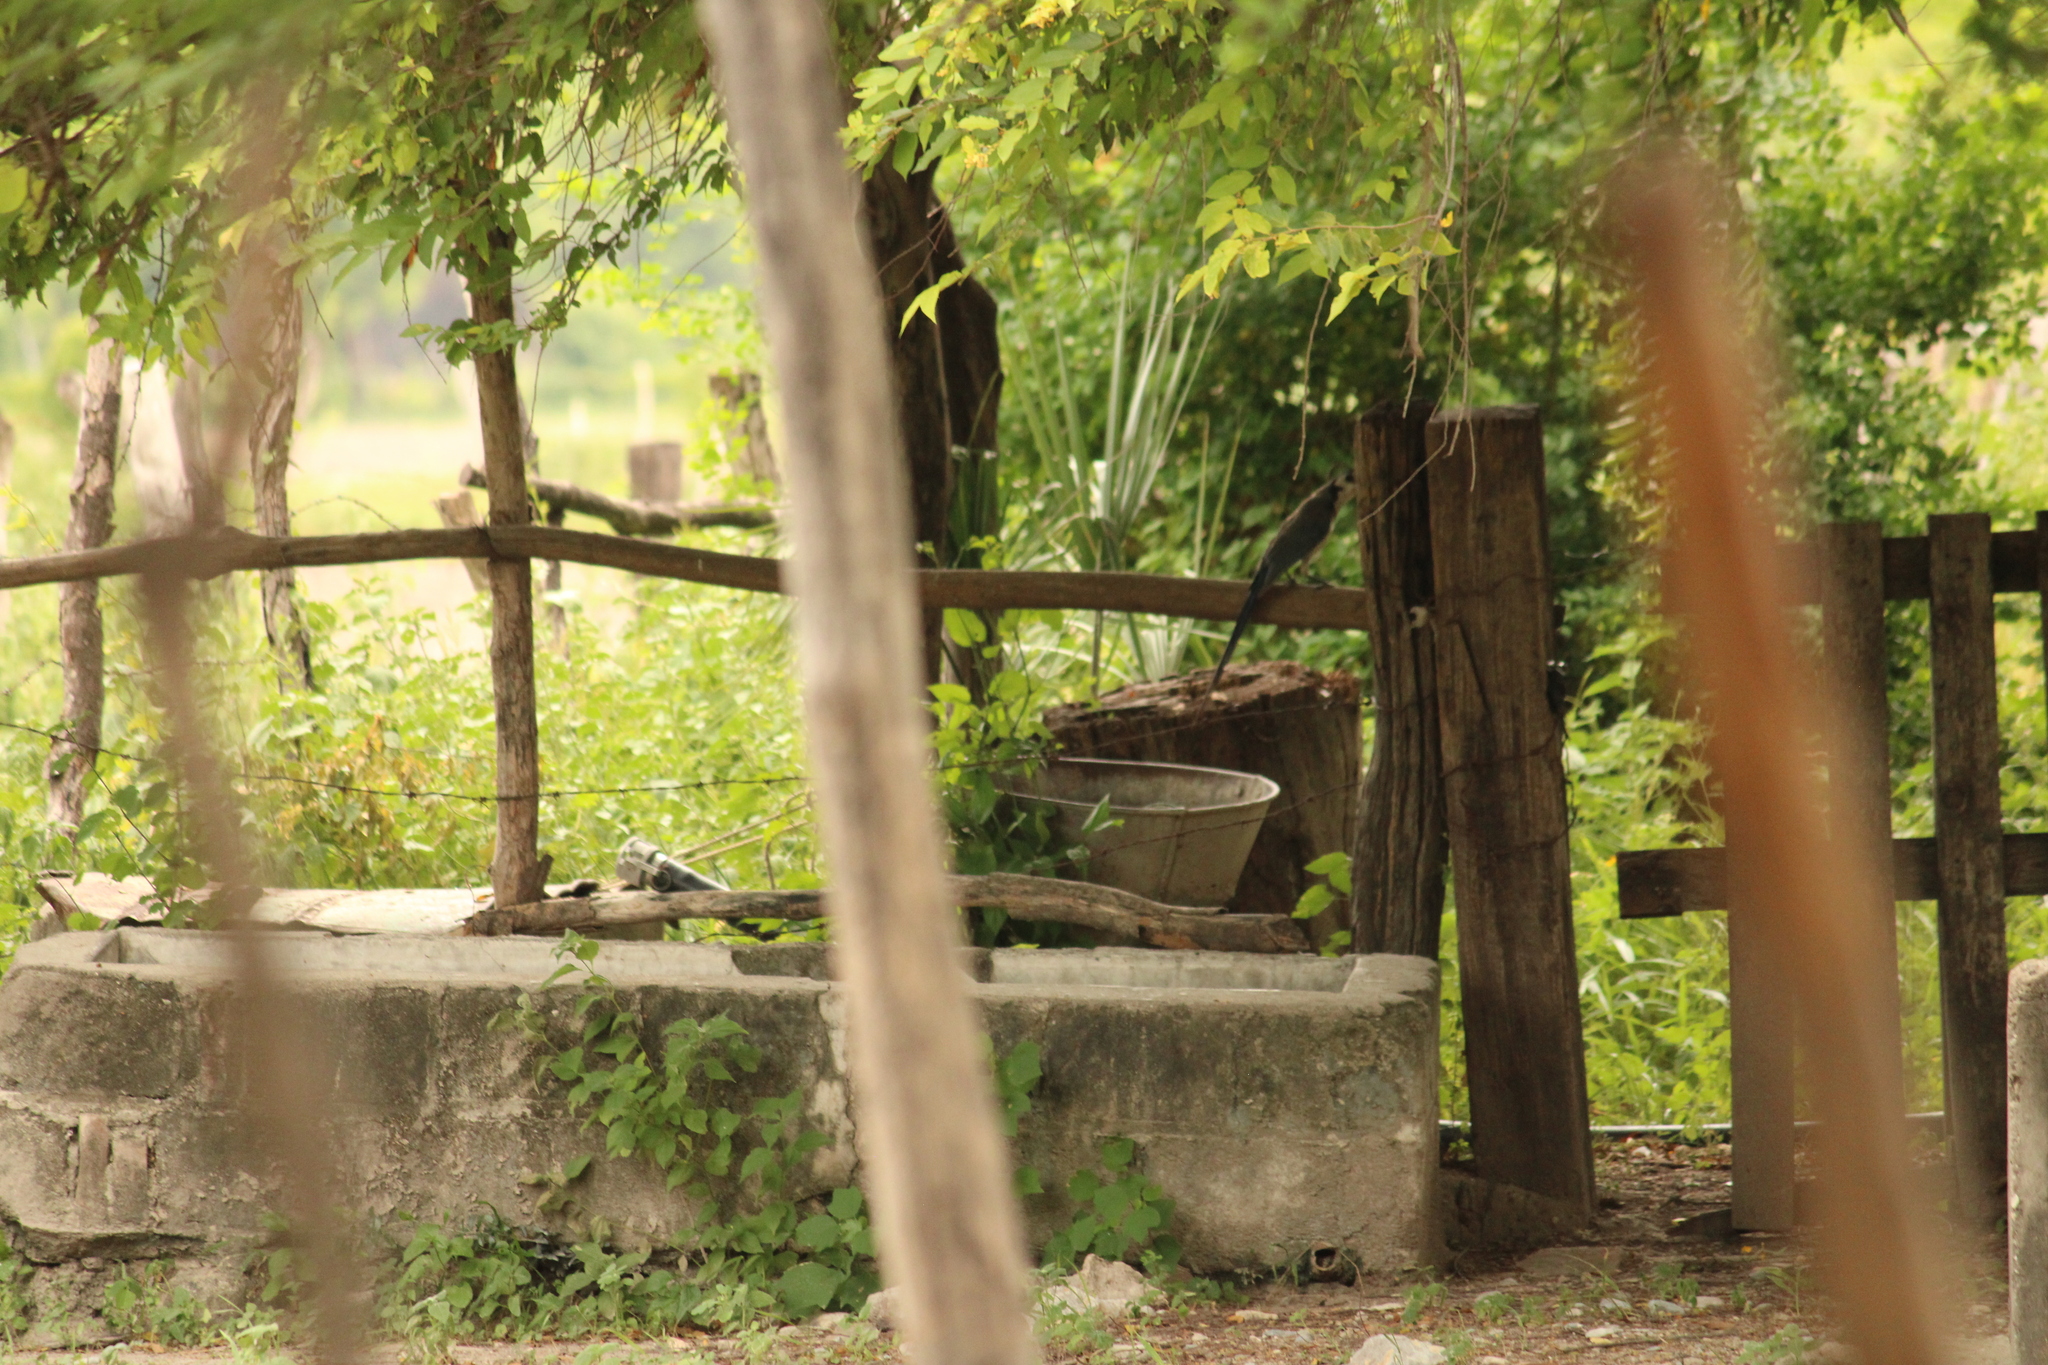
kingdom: Animalia
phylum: Chordata
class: Aves
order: Passeriformes
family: Corvidae
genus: Calocitta
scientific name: Calocitta formosa
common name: White-throated magpie-jay
